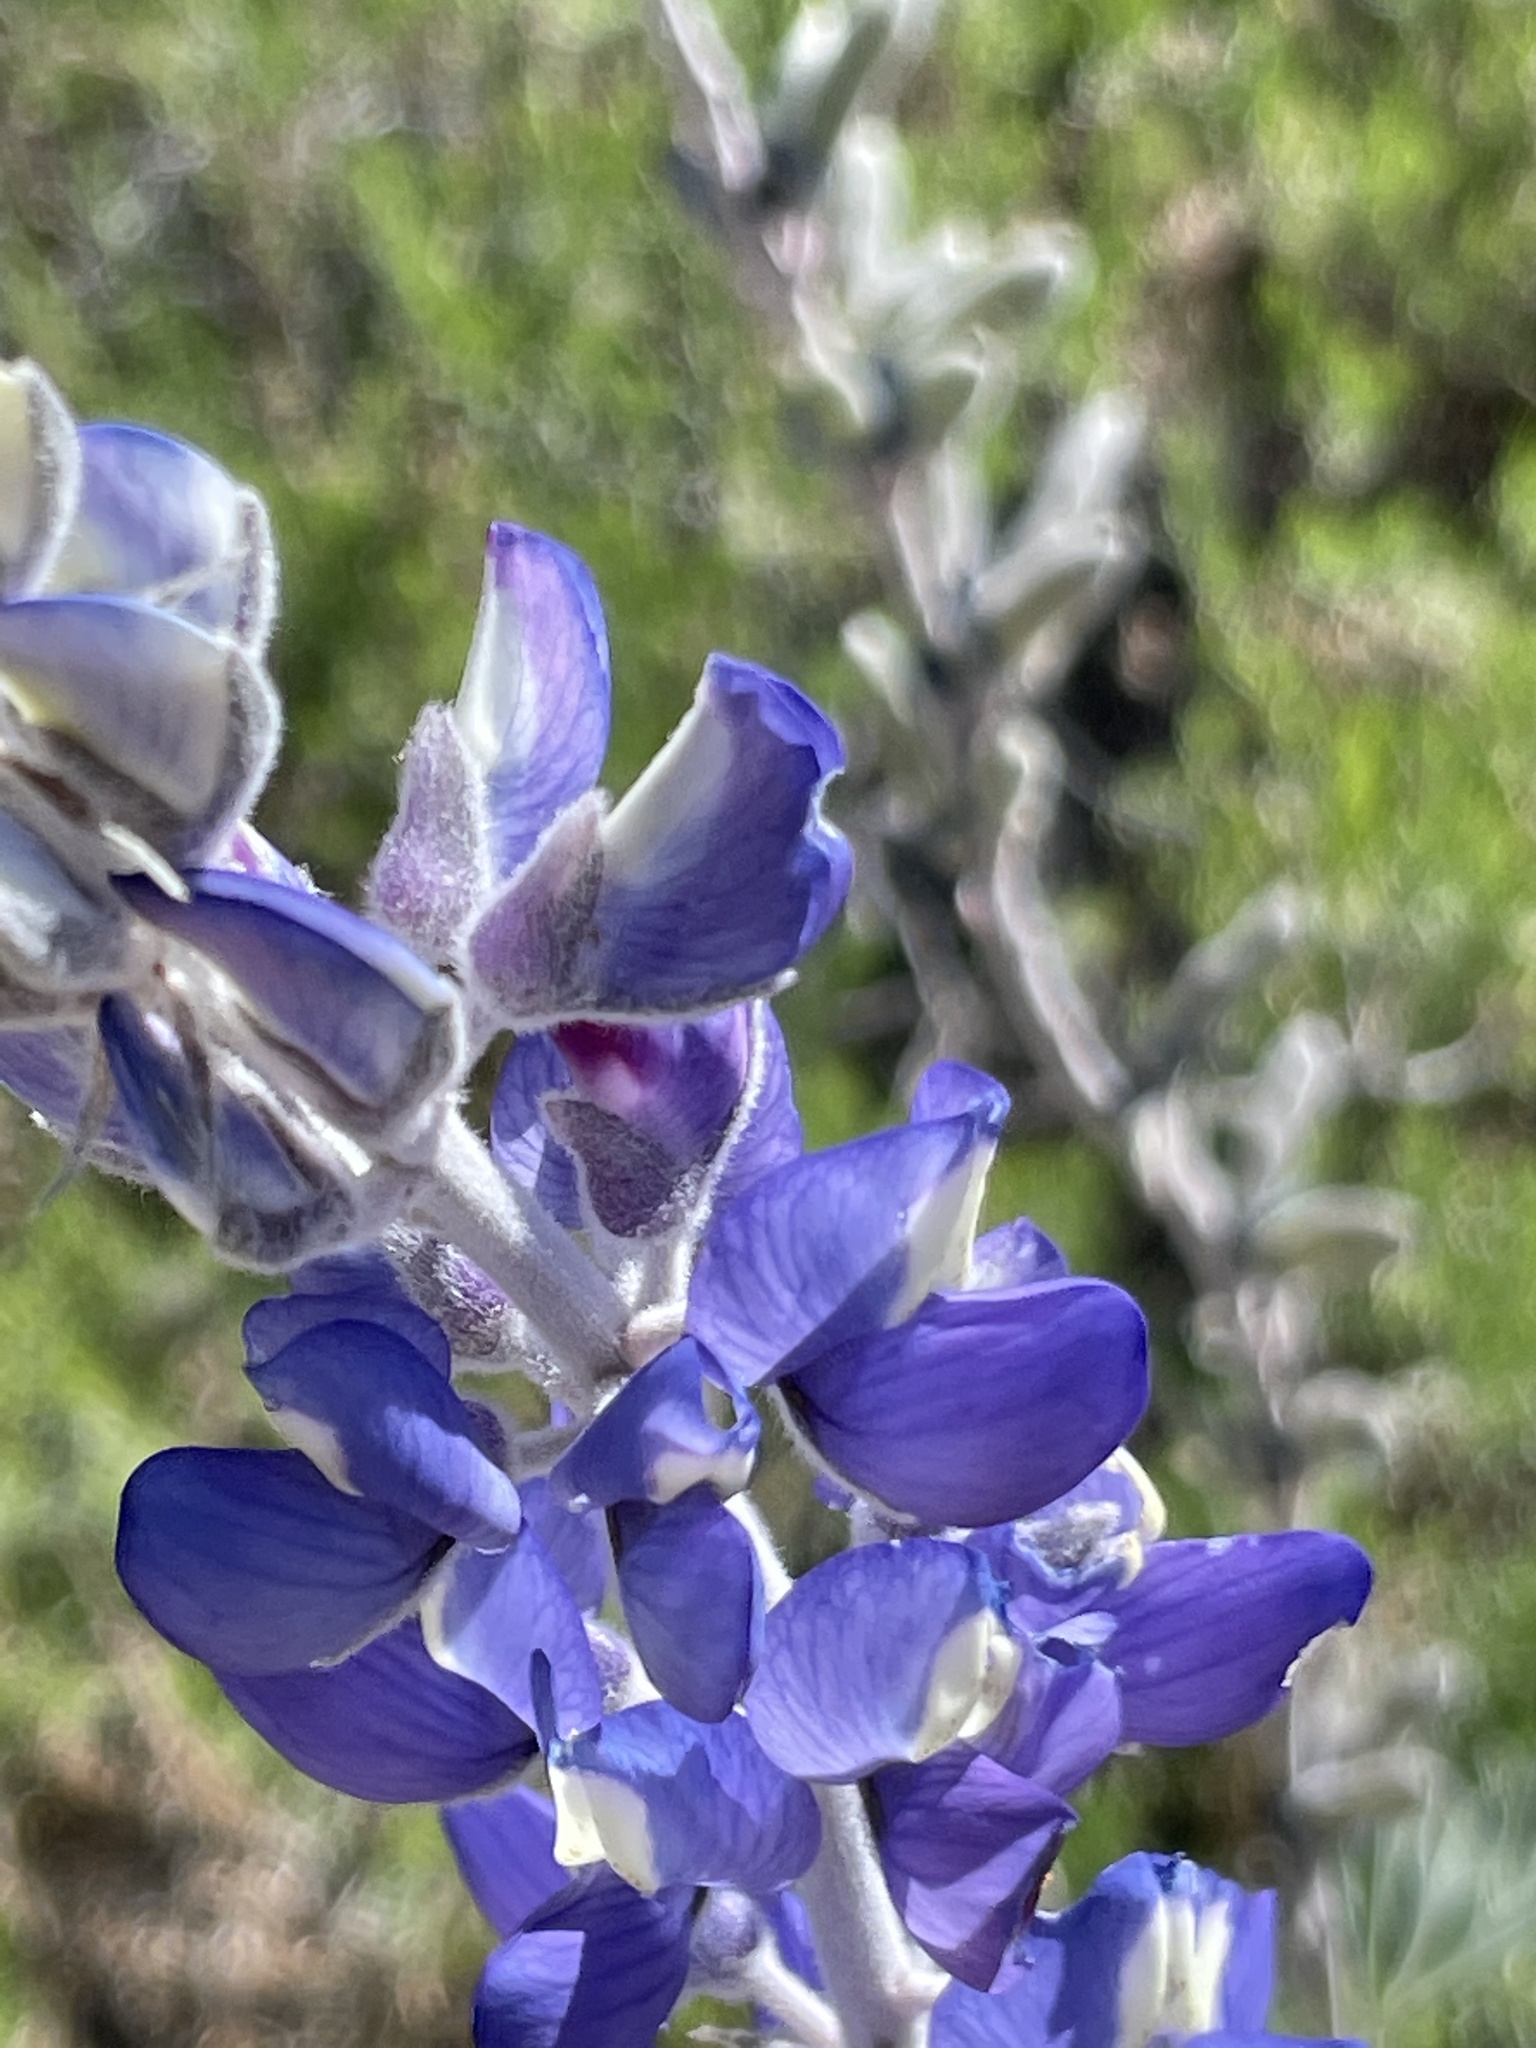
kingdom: Plantae
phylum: Tracheophyta
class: Magnoliopsida
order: Fabales
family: Fabaceae
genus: Lupinus
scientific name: Lupinus excubitus
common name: Grape soda lupine
